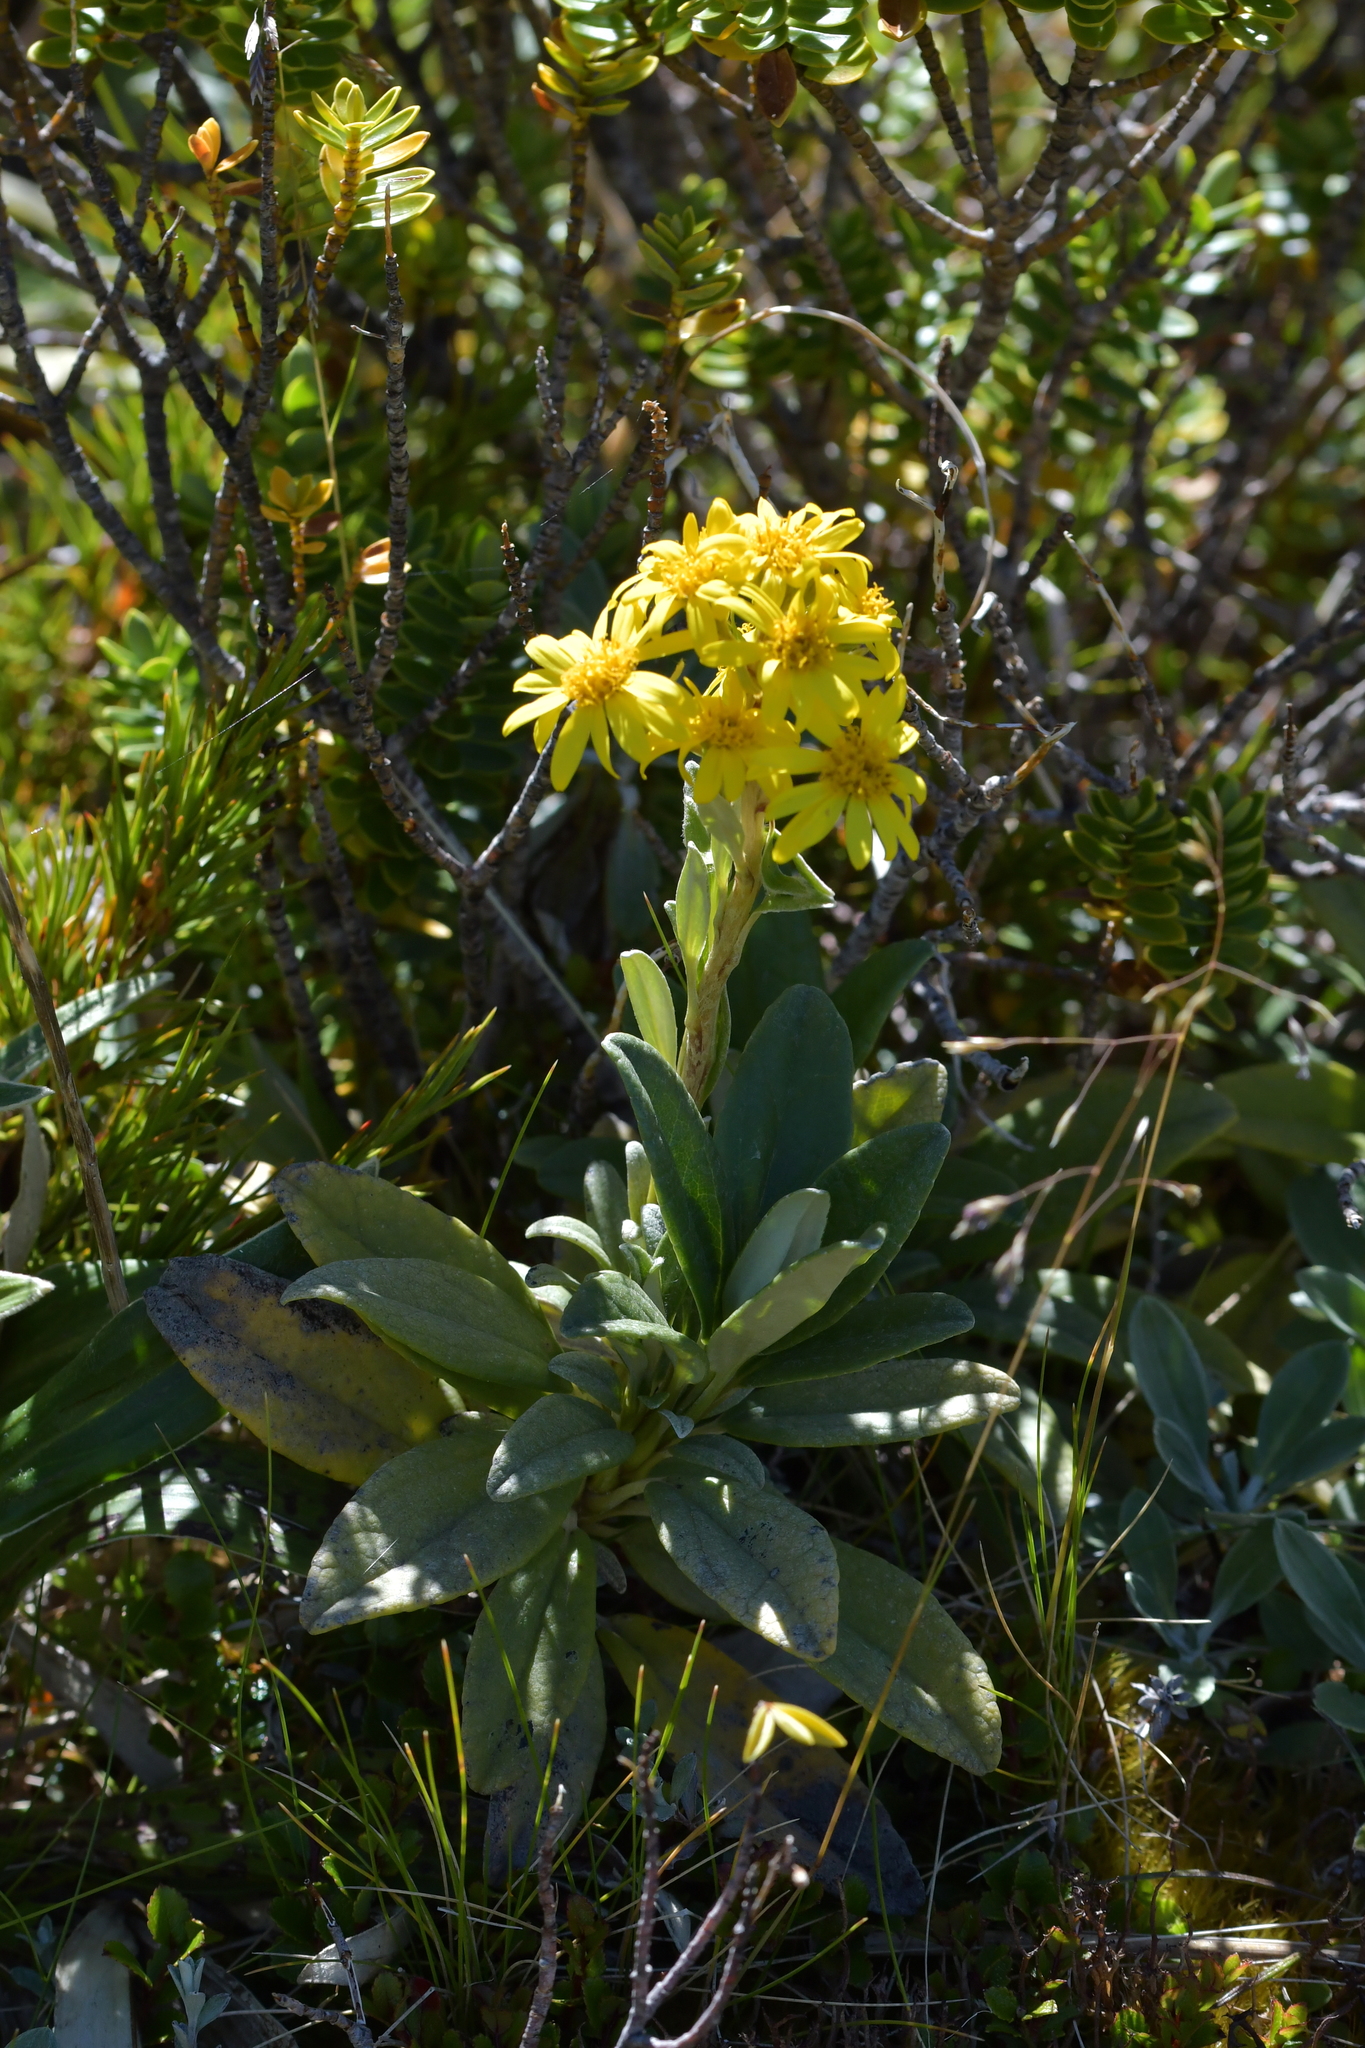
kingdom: Plantae
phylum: Tracheophyta
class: Magnoliopsida
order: Asterales
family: Asteraceae
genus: Brachyglottis
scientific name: Brachyglottis revoluta
